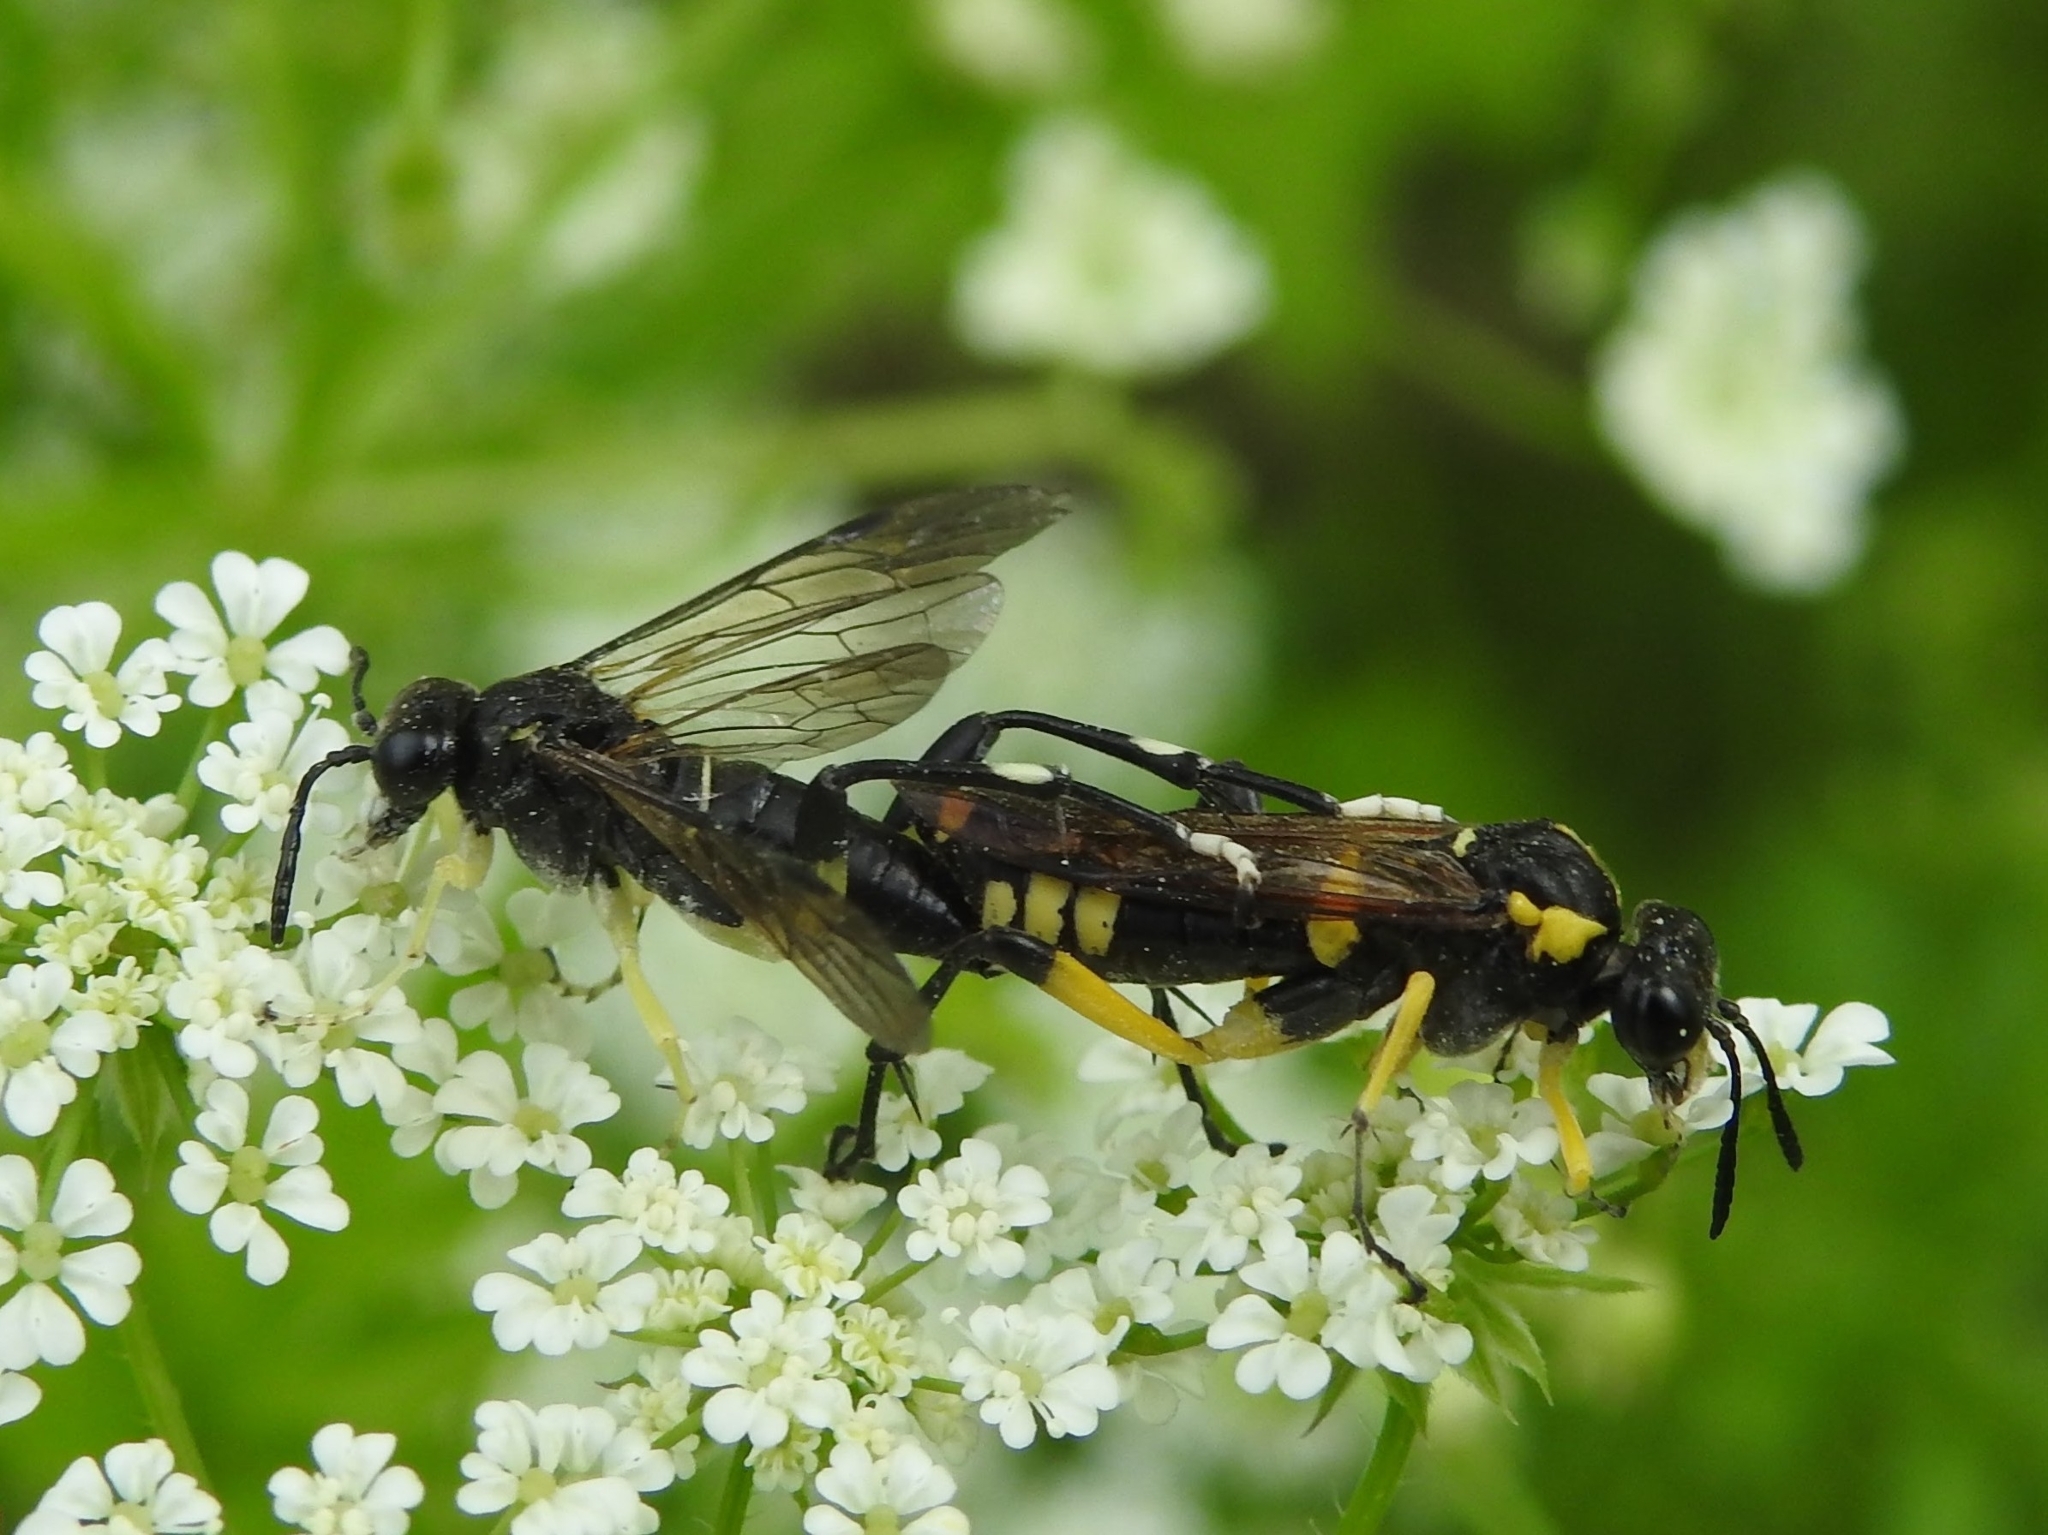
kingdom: Animalia
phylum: Arthropoda
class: Insecta
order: Hymenoptera
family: Tenthredinidae
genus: Macrophya
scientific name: Macrophya montana
